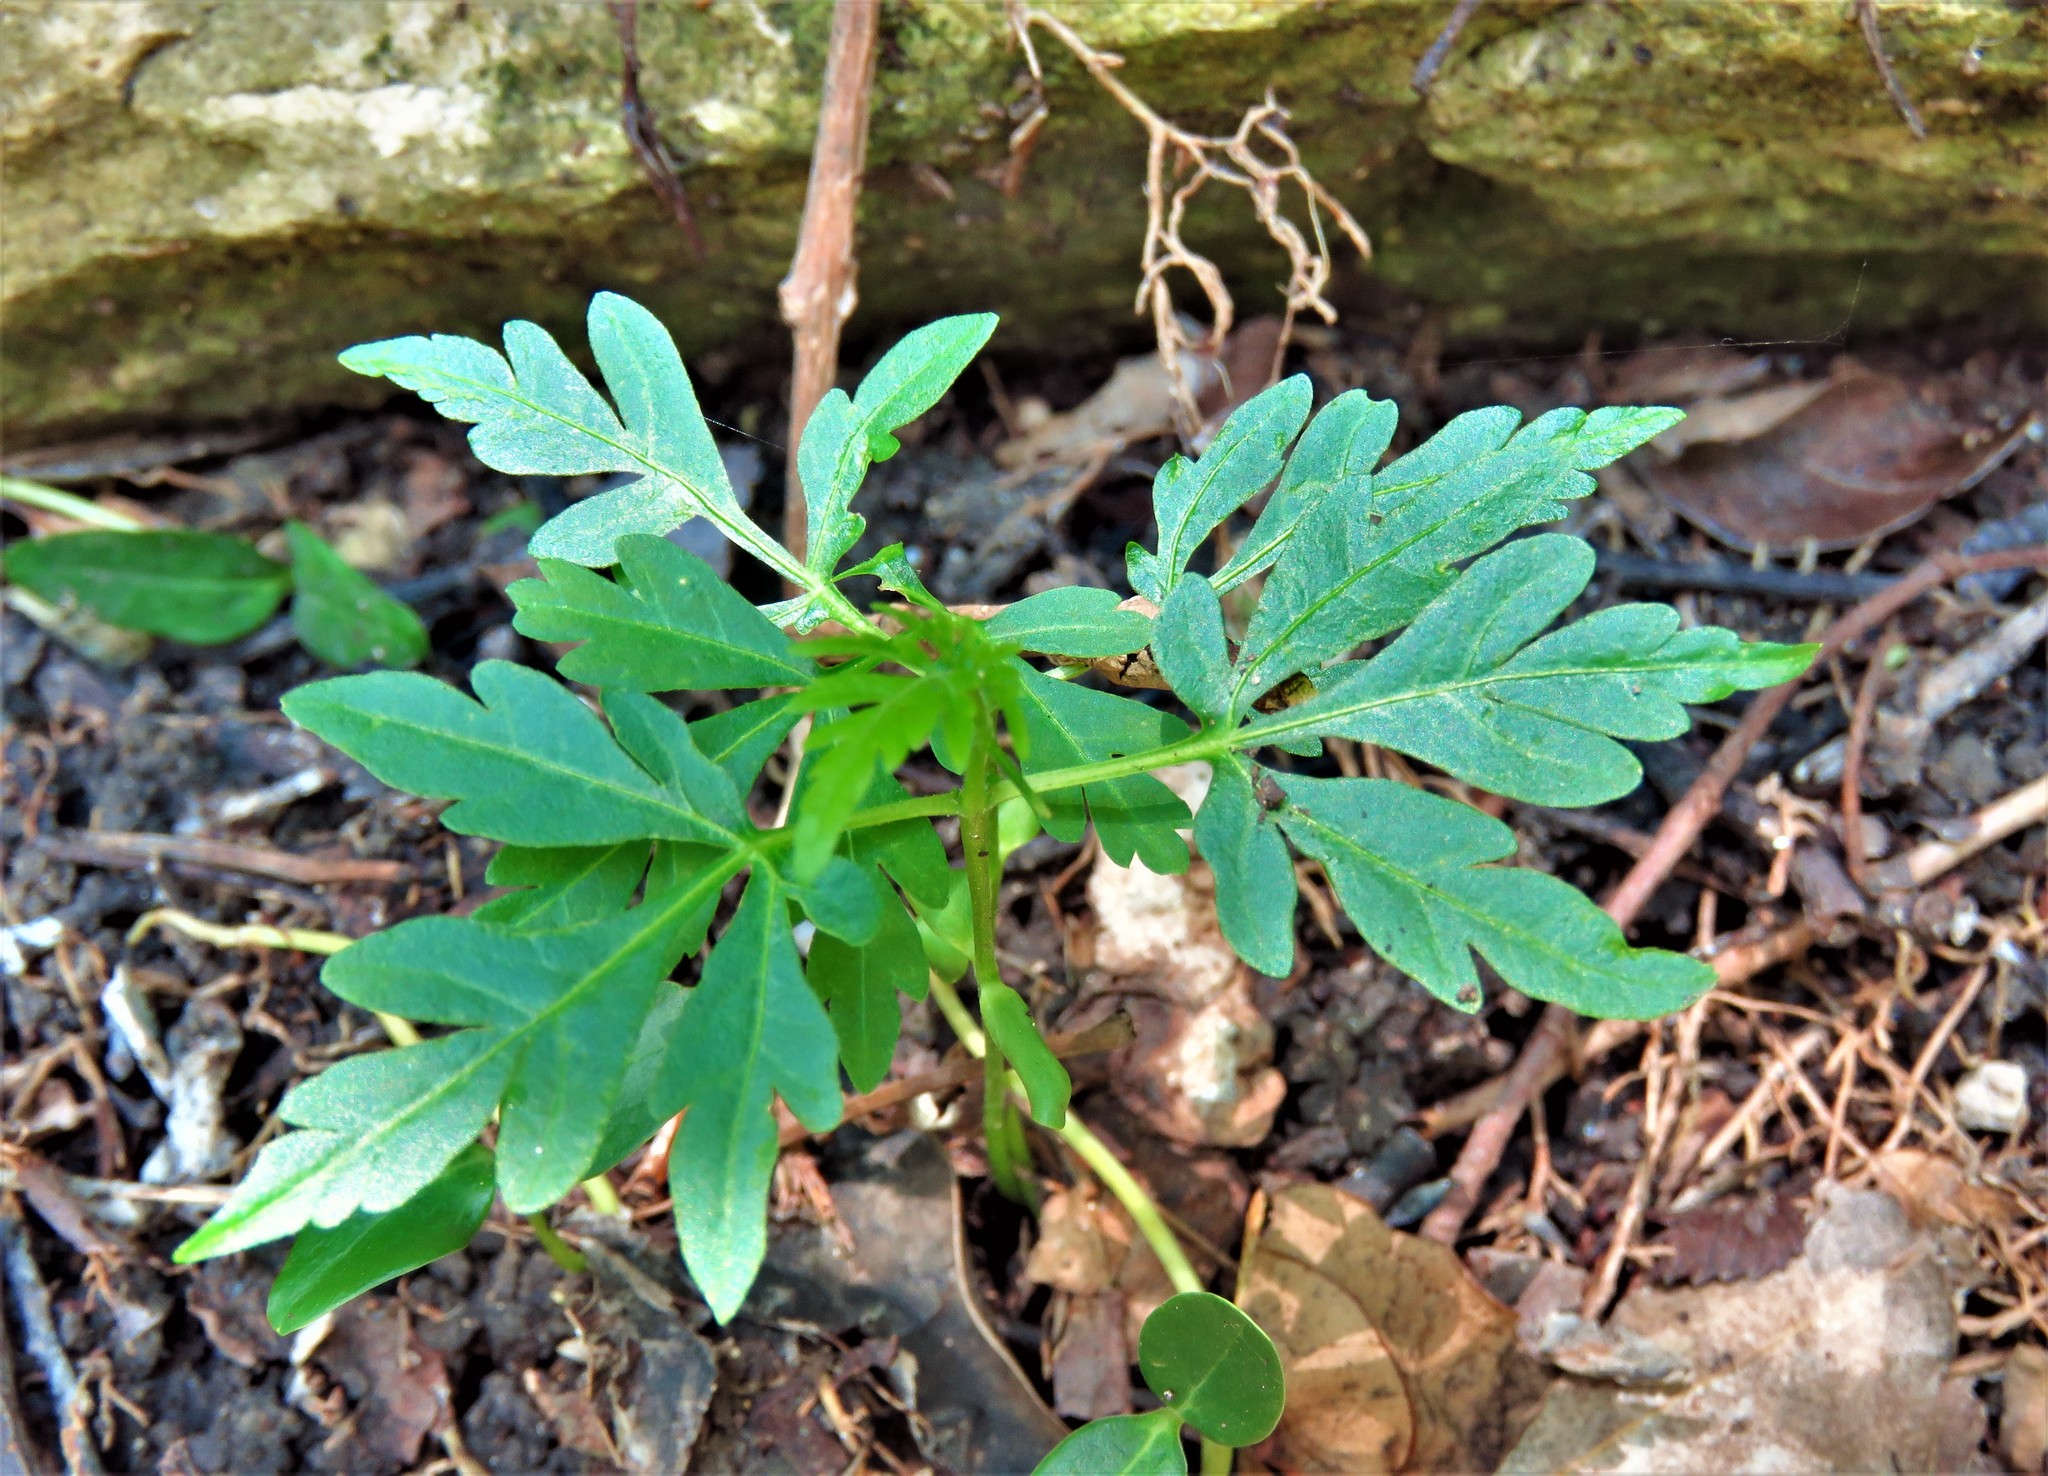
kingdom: Plantae
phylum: Tracheophyta
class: Magnoliopsida
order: Sapindales
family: Sapindaceae
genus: Cardiospermum
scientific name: Cardiospermum halicacabum
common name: Balloon vine
